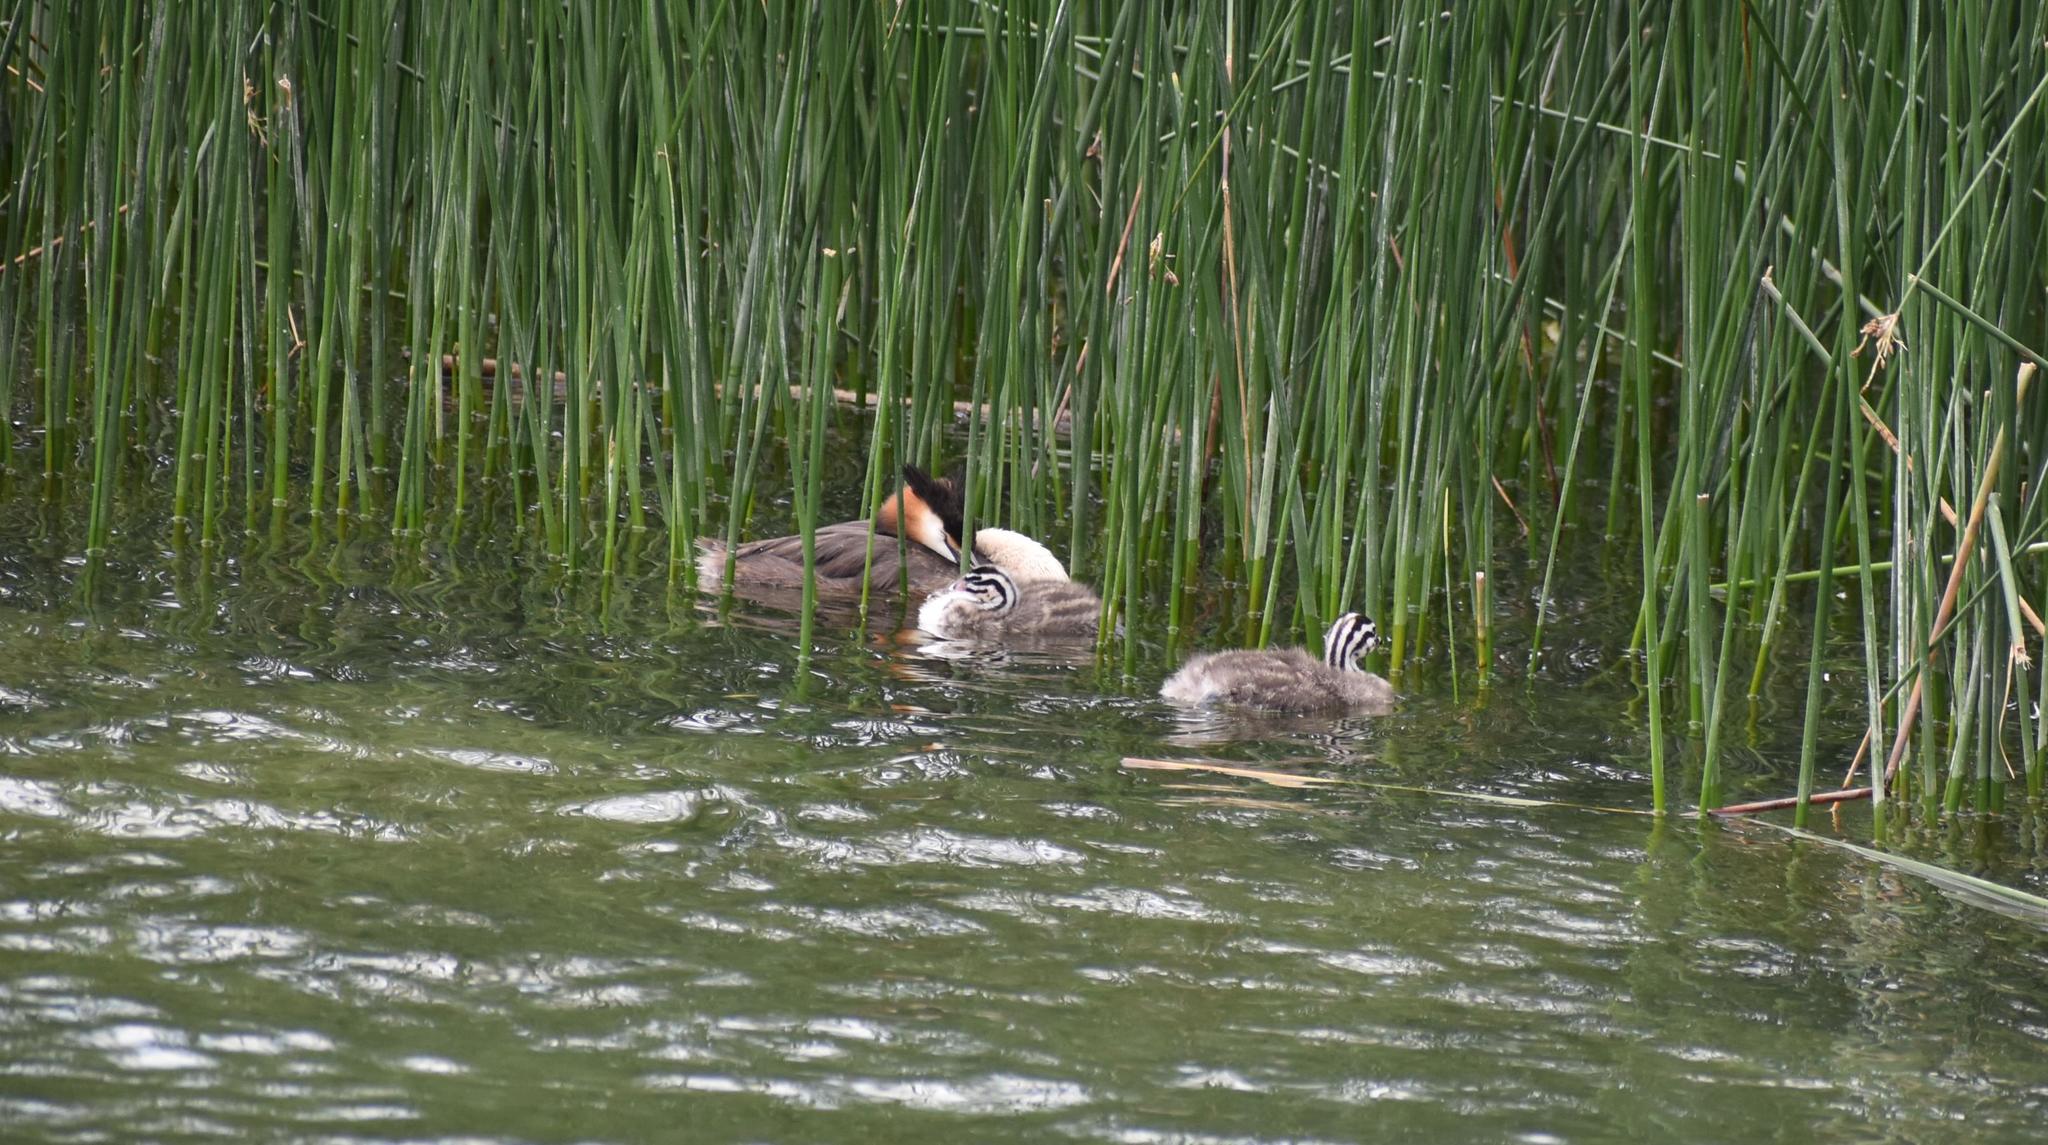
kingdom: Animalia
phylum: Chordata
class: Aves
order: Podicipediformes
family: Podicipedidae
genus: Podiceps
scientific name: Podiceps cristatus
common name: Great crested grebe
